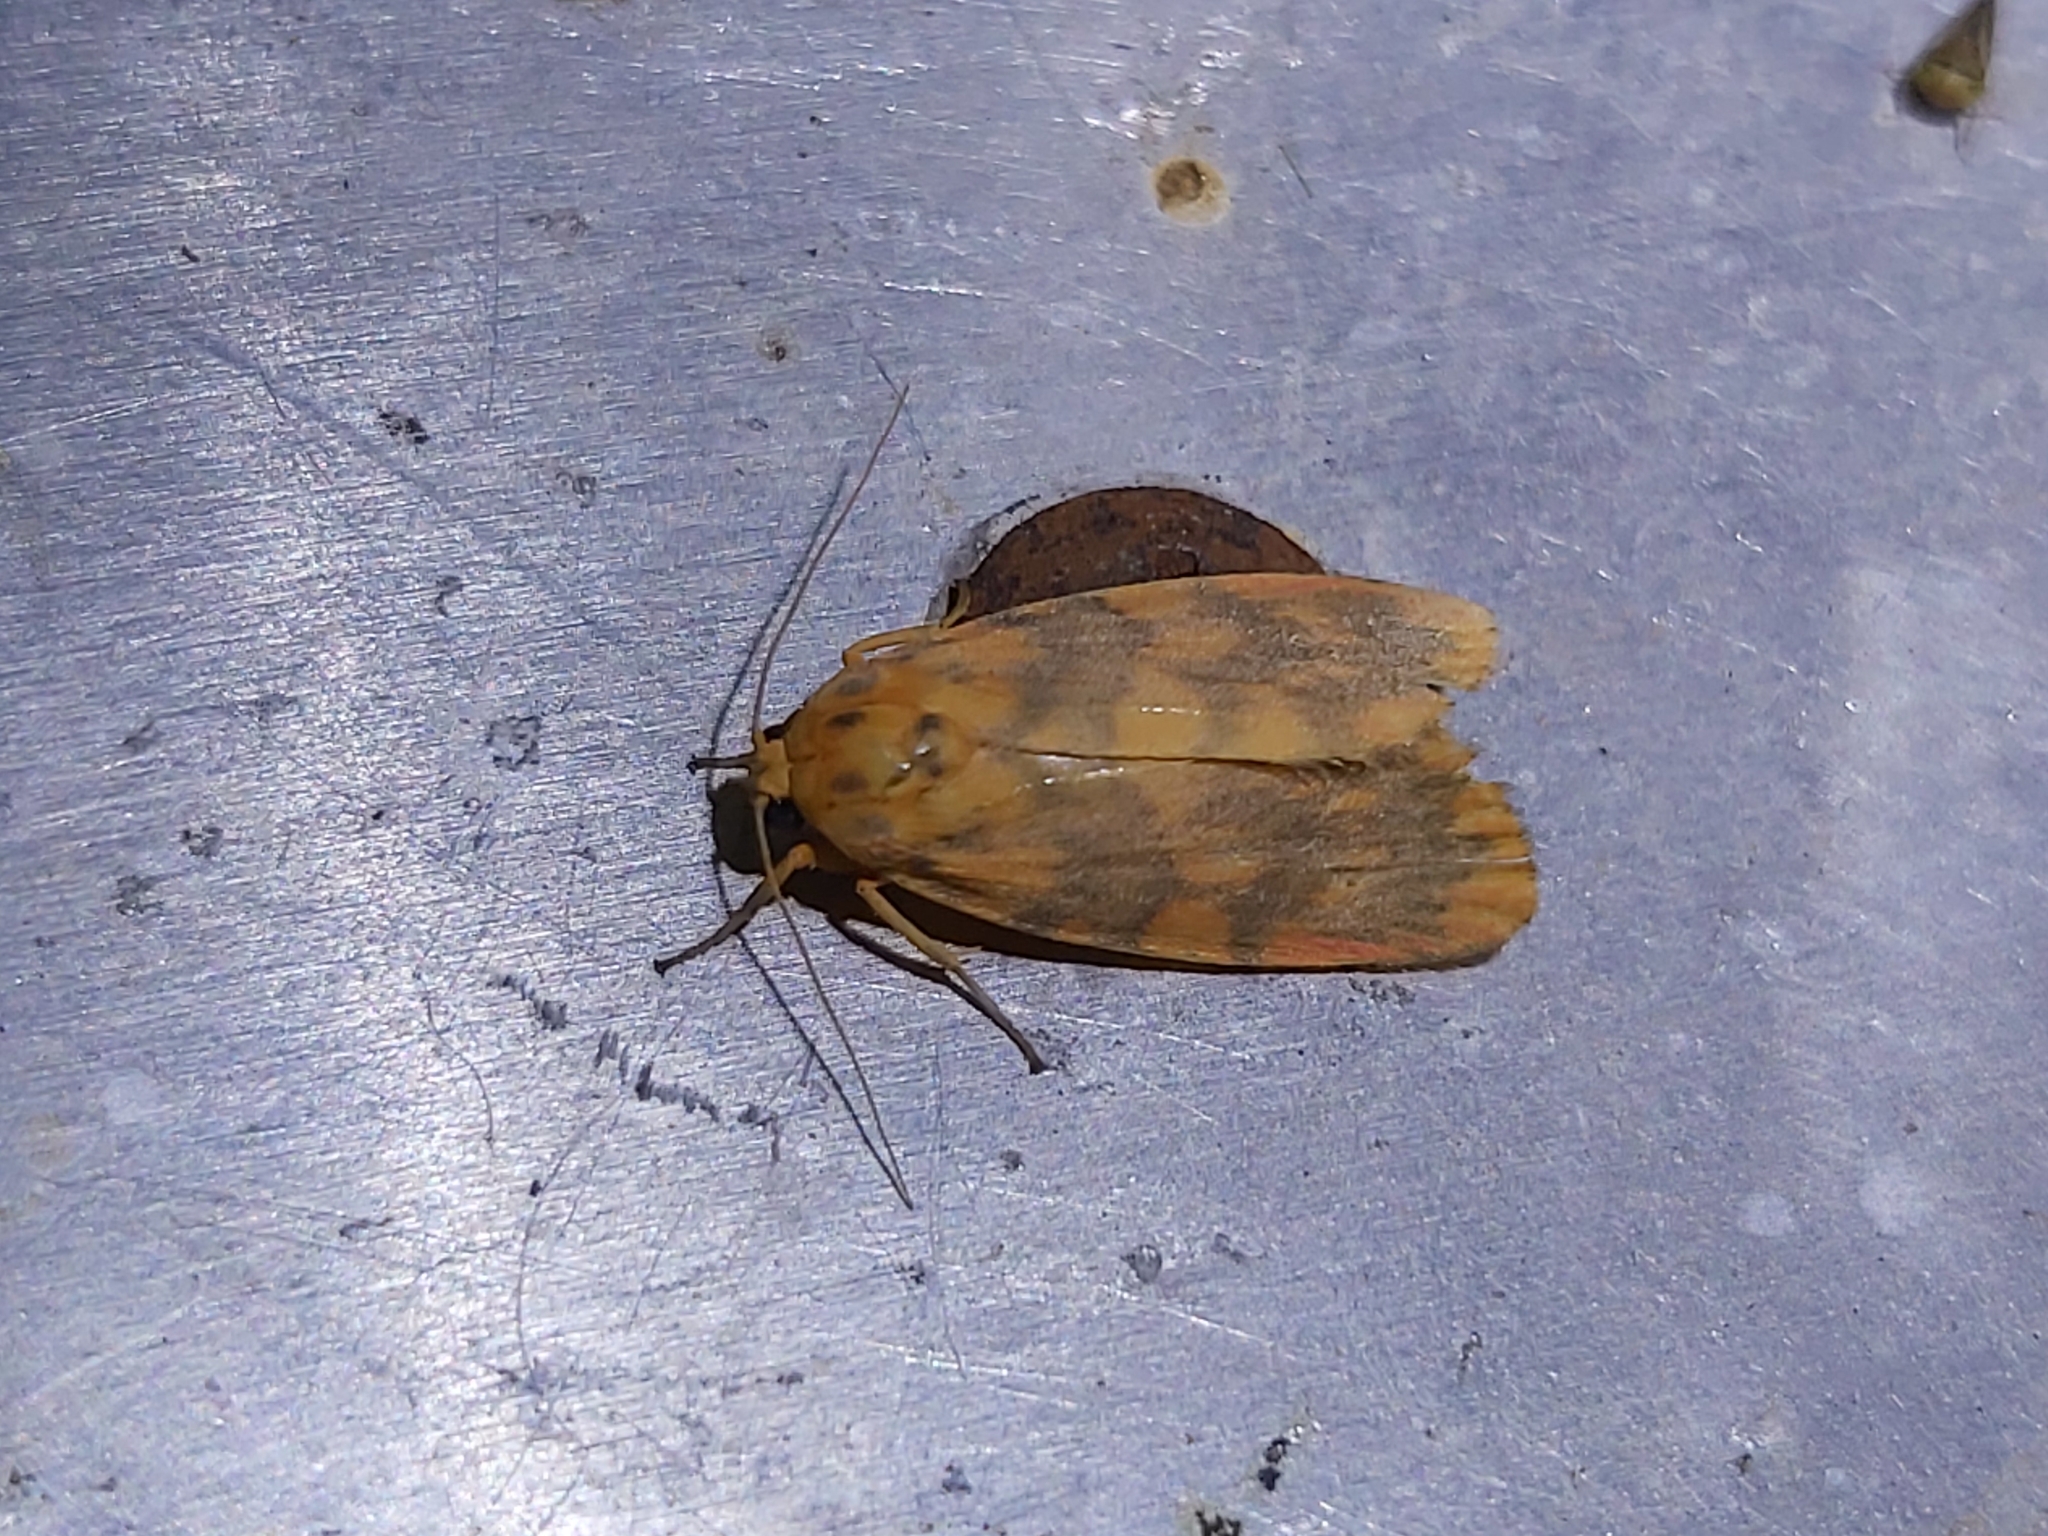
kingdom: Animalia
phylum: Arthropoda
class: Insecta
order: Lepidoptera
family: Erebidae
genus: Cyme
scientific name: Cyme pyraula
